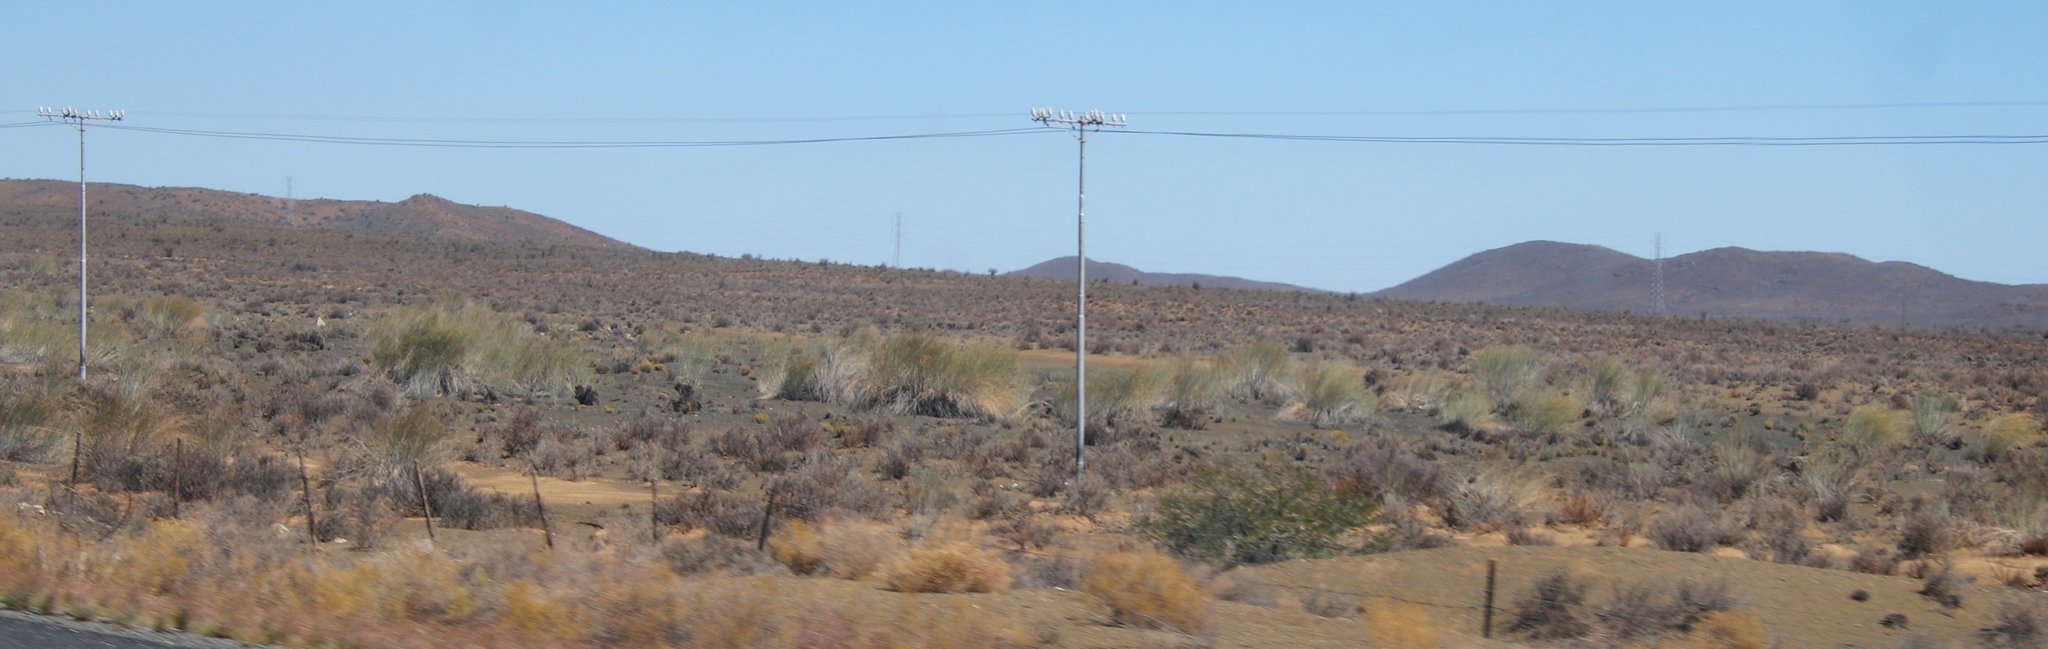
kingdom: Plantae
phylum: Tracheophyta
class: Magnoliopsida
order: Gentianales
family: Apocynaceae
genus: Gomphocarpus
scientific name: Gomphocarpus filiformis
